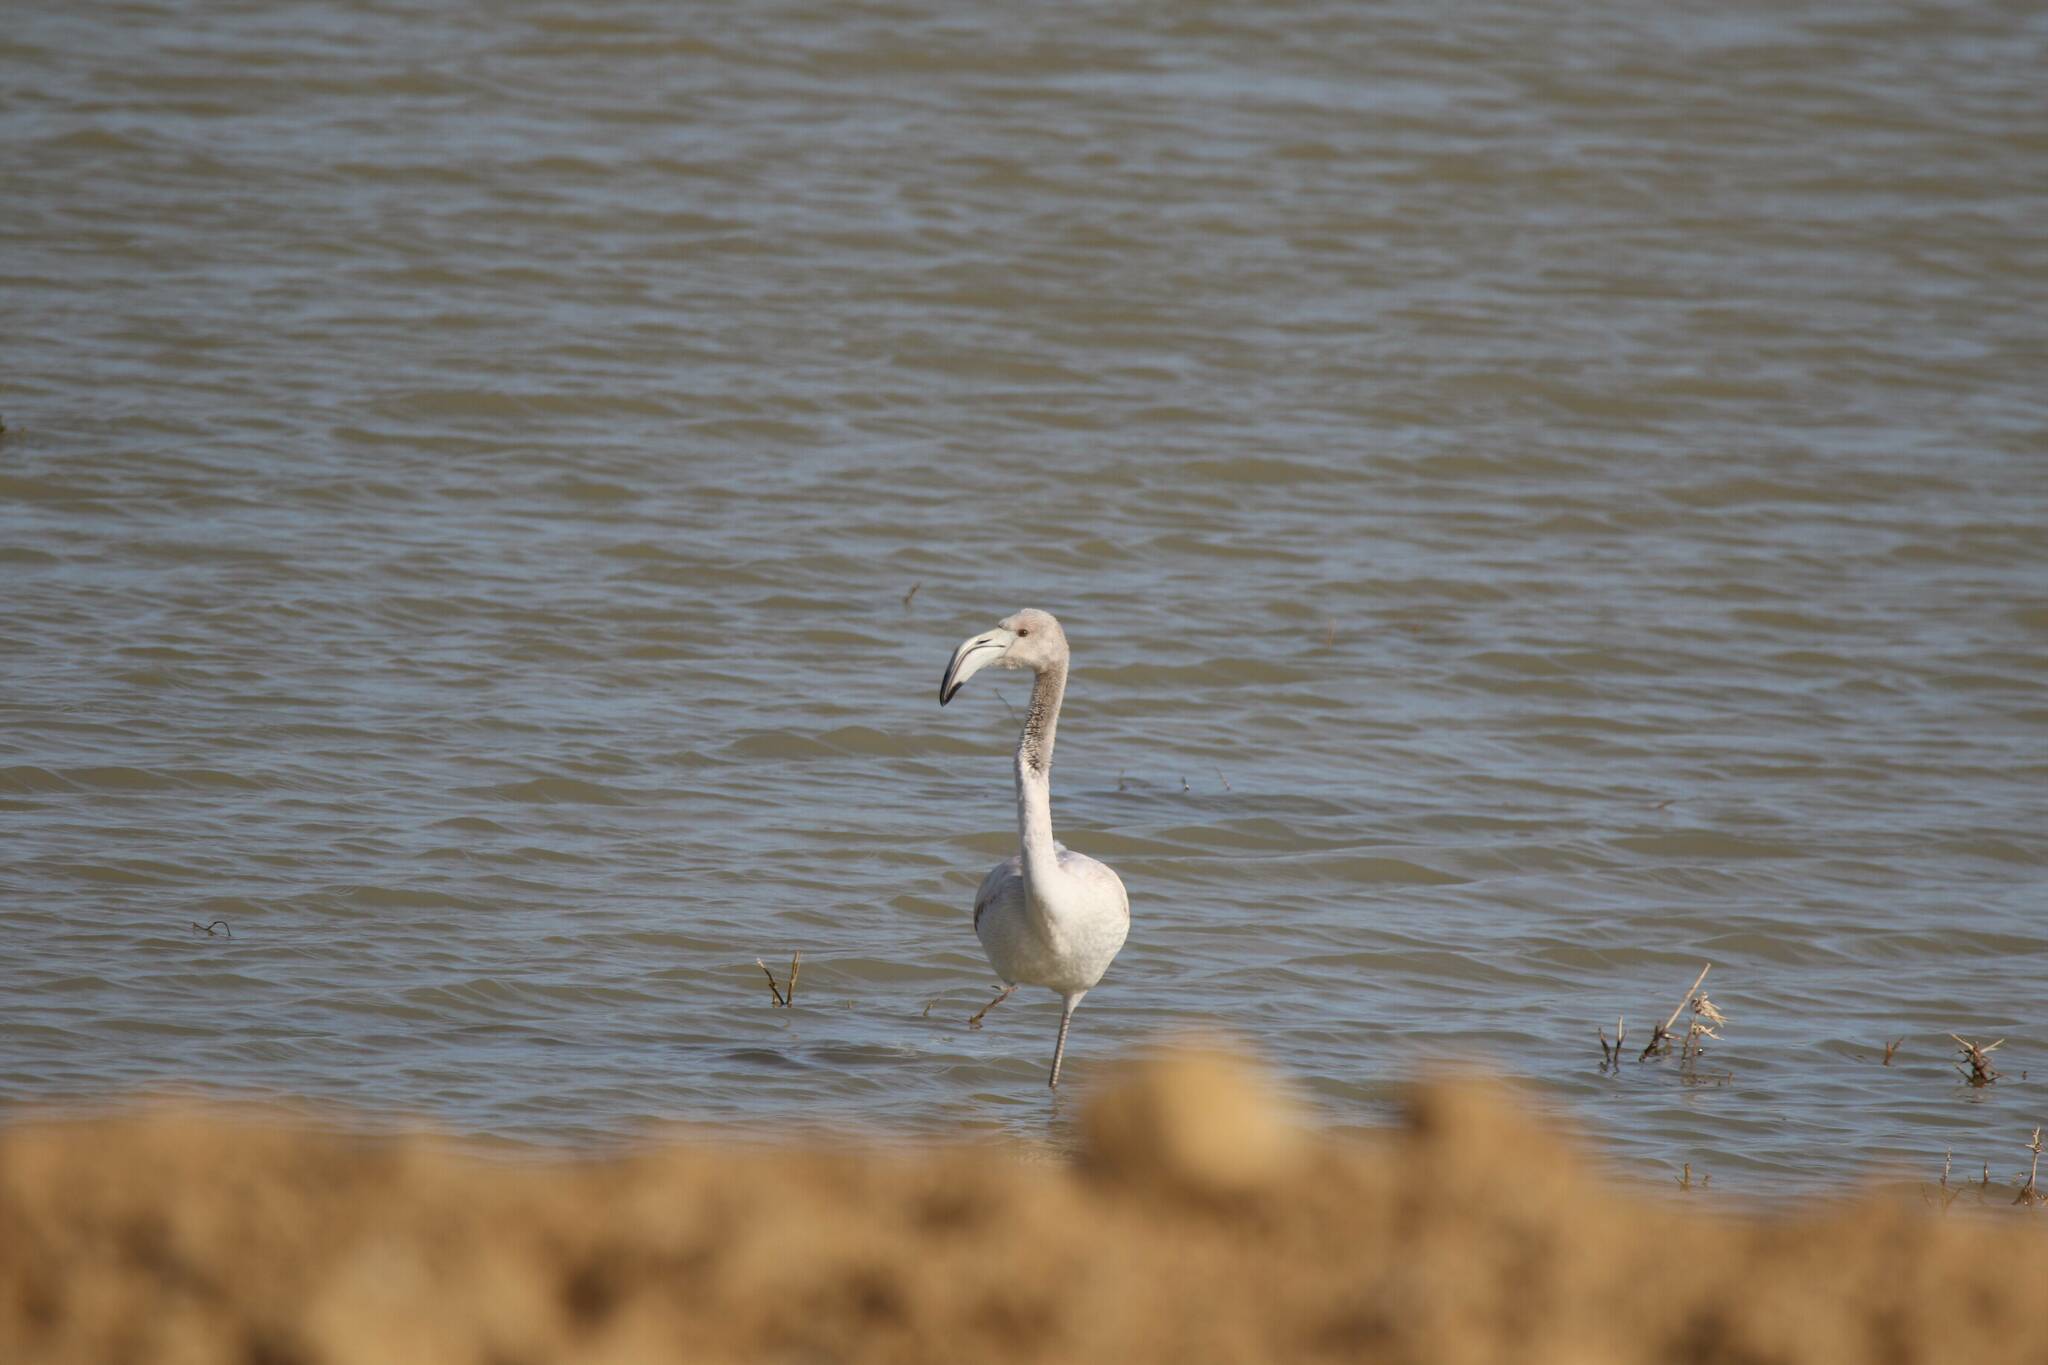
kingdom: Animalia
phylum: Chordata
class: Aves
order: Phoenicopteriformes
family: Phoenicopteridae
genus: Phoenicopterus
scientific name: Phoenicopterus roseus
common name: Greater flamingo
